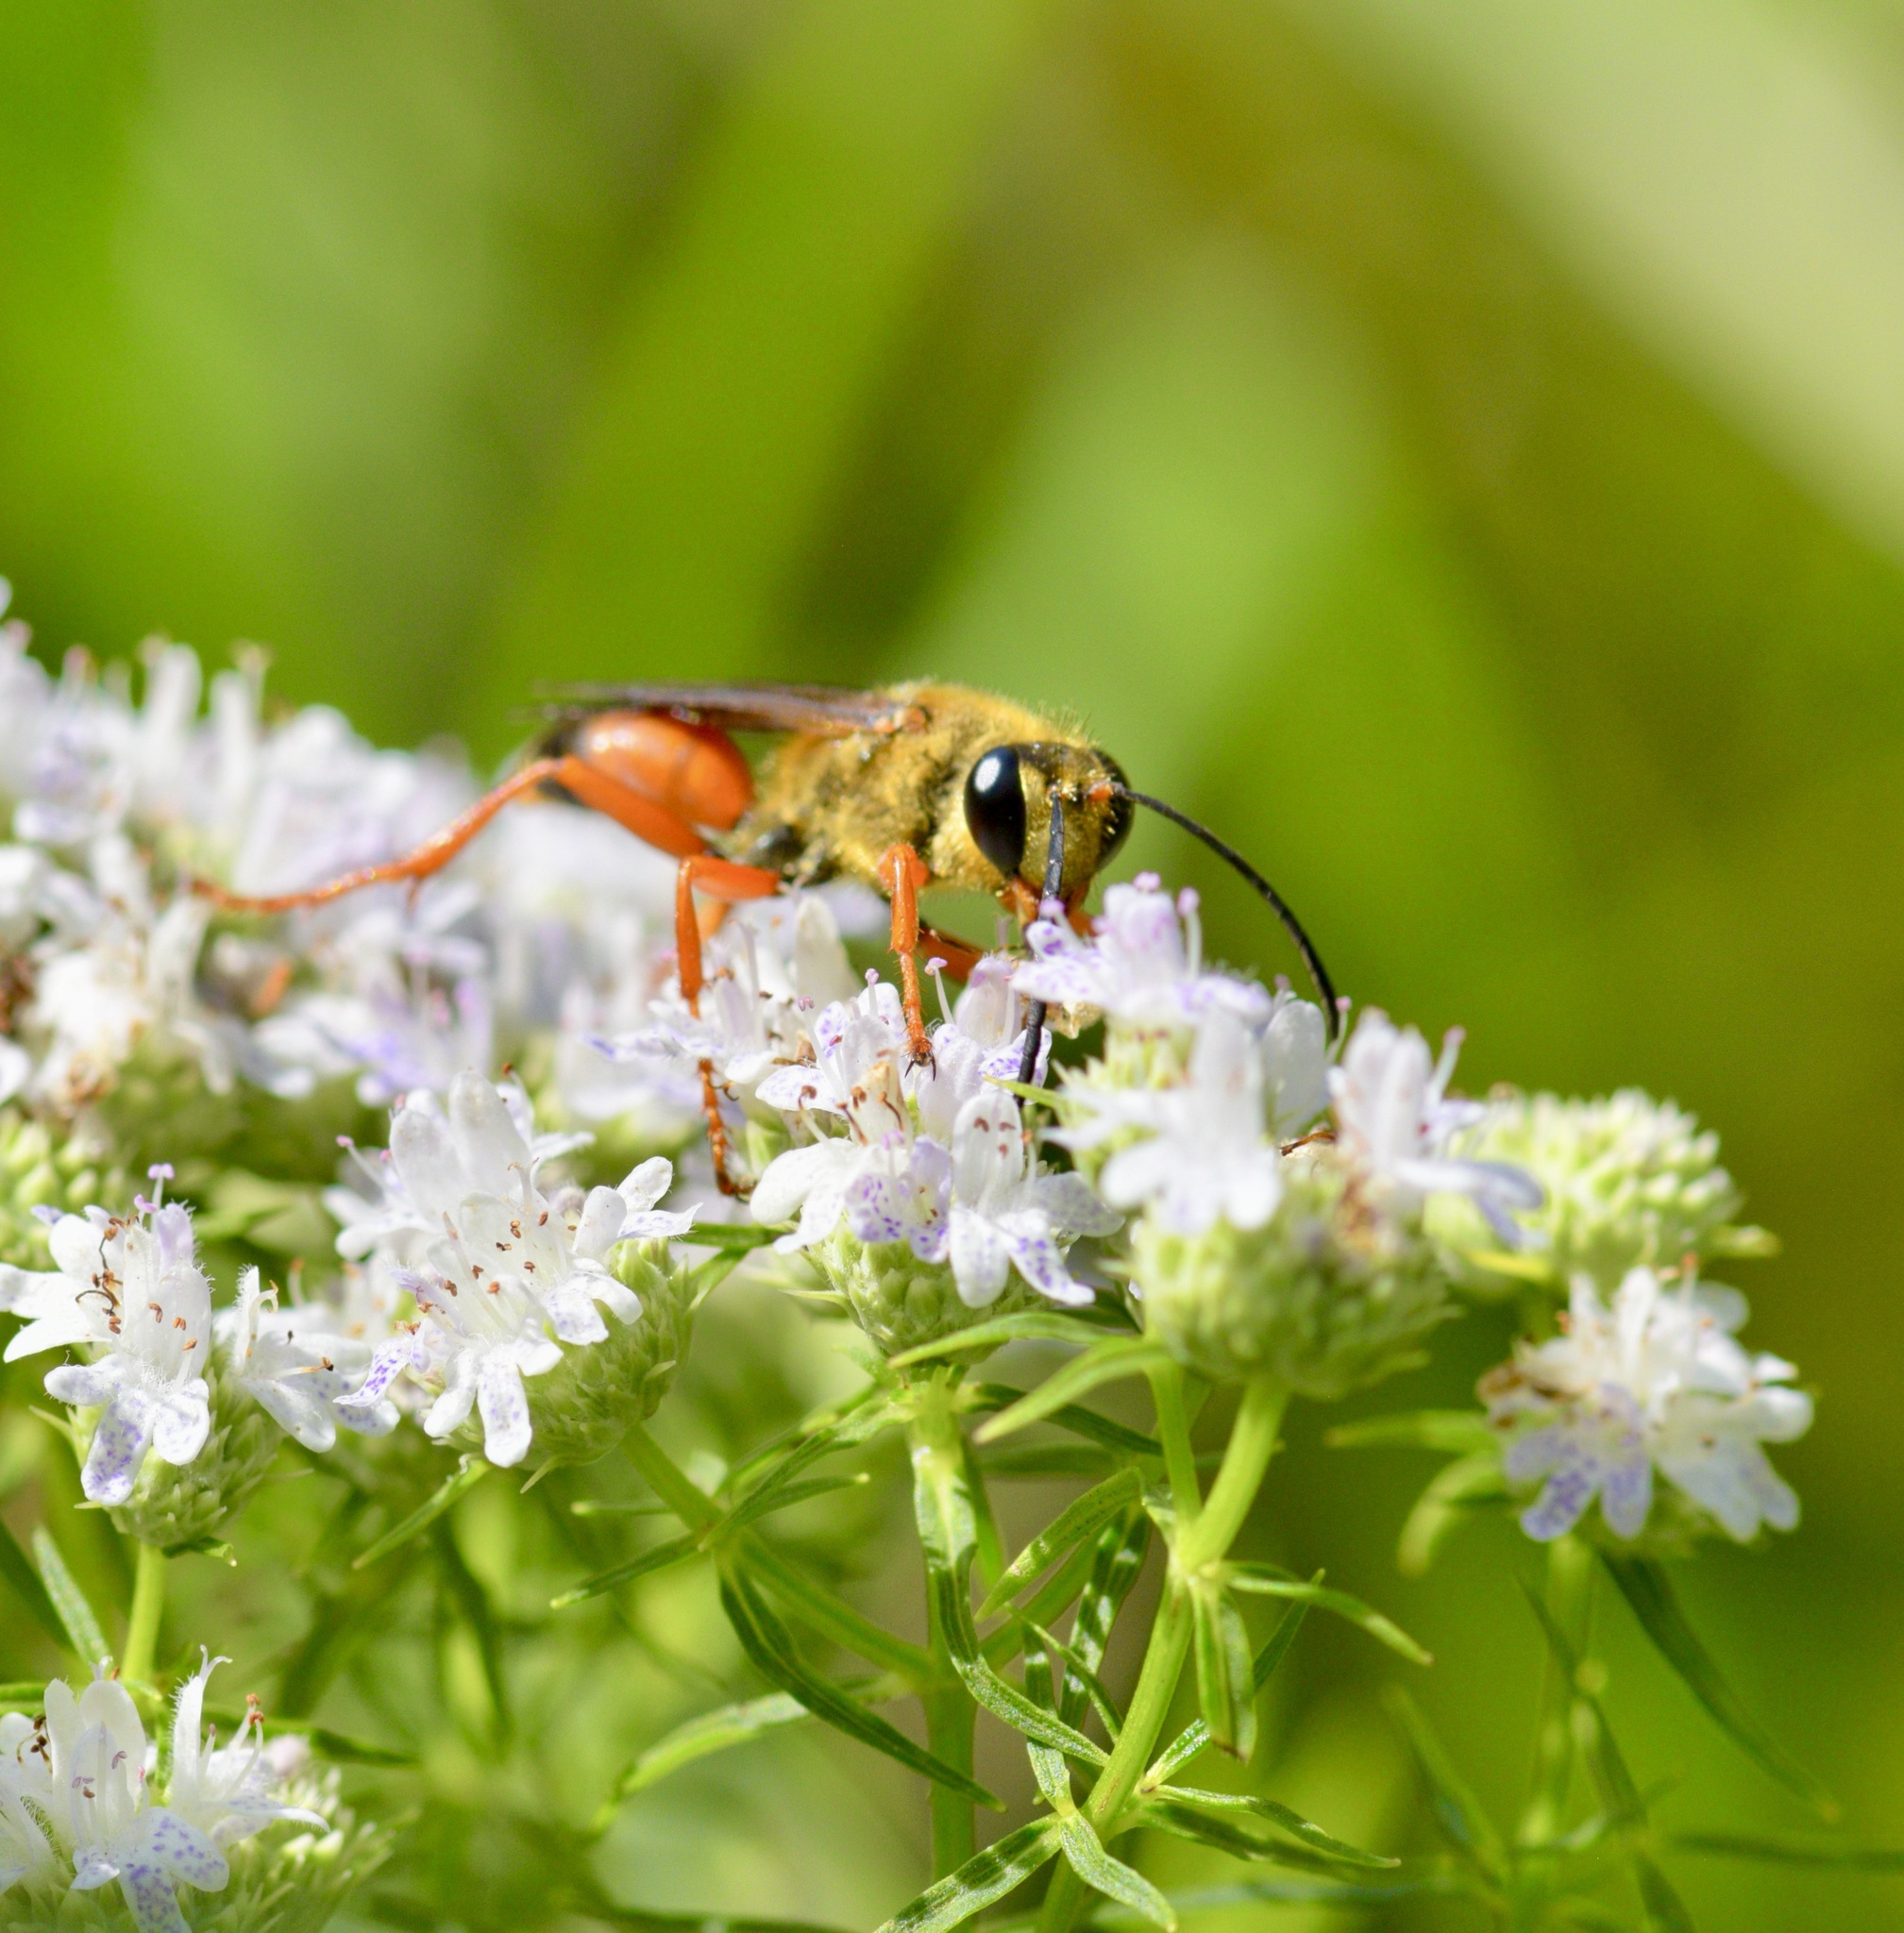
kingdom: Animalia
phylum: Arthropoda
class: Insecta
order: Hymenoptera
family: Sphecidae
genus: Sphex
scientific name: Sphex ichneumoneus
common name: Great golden digger wasp
